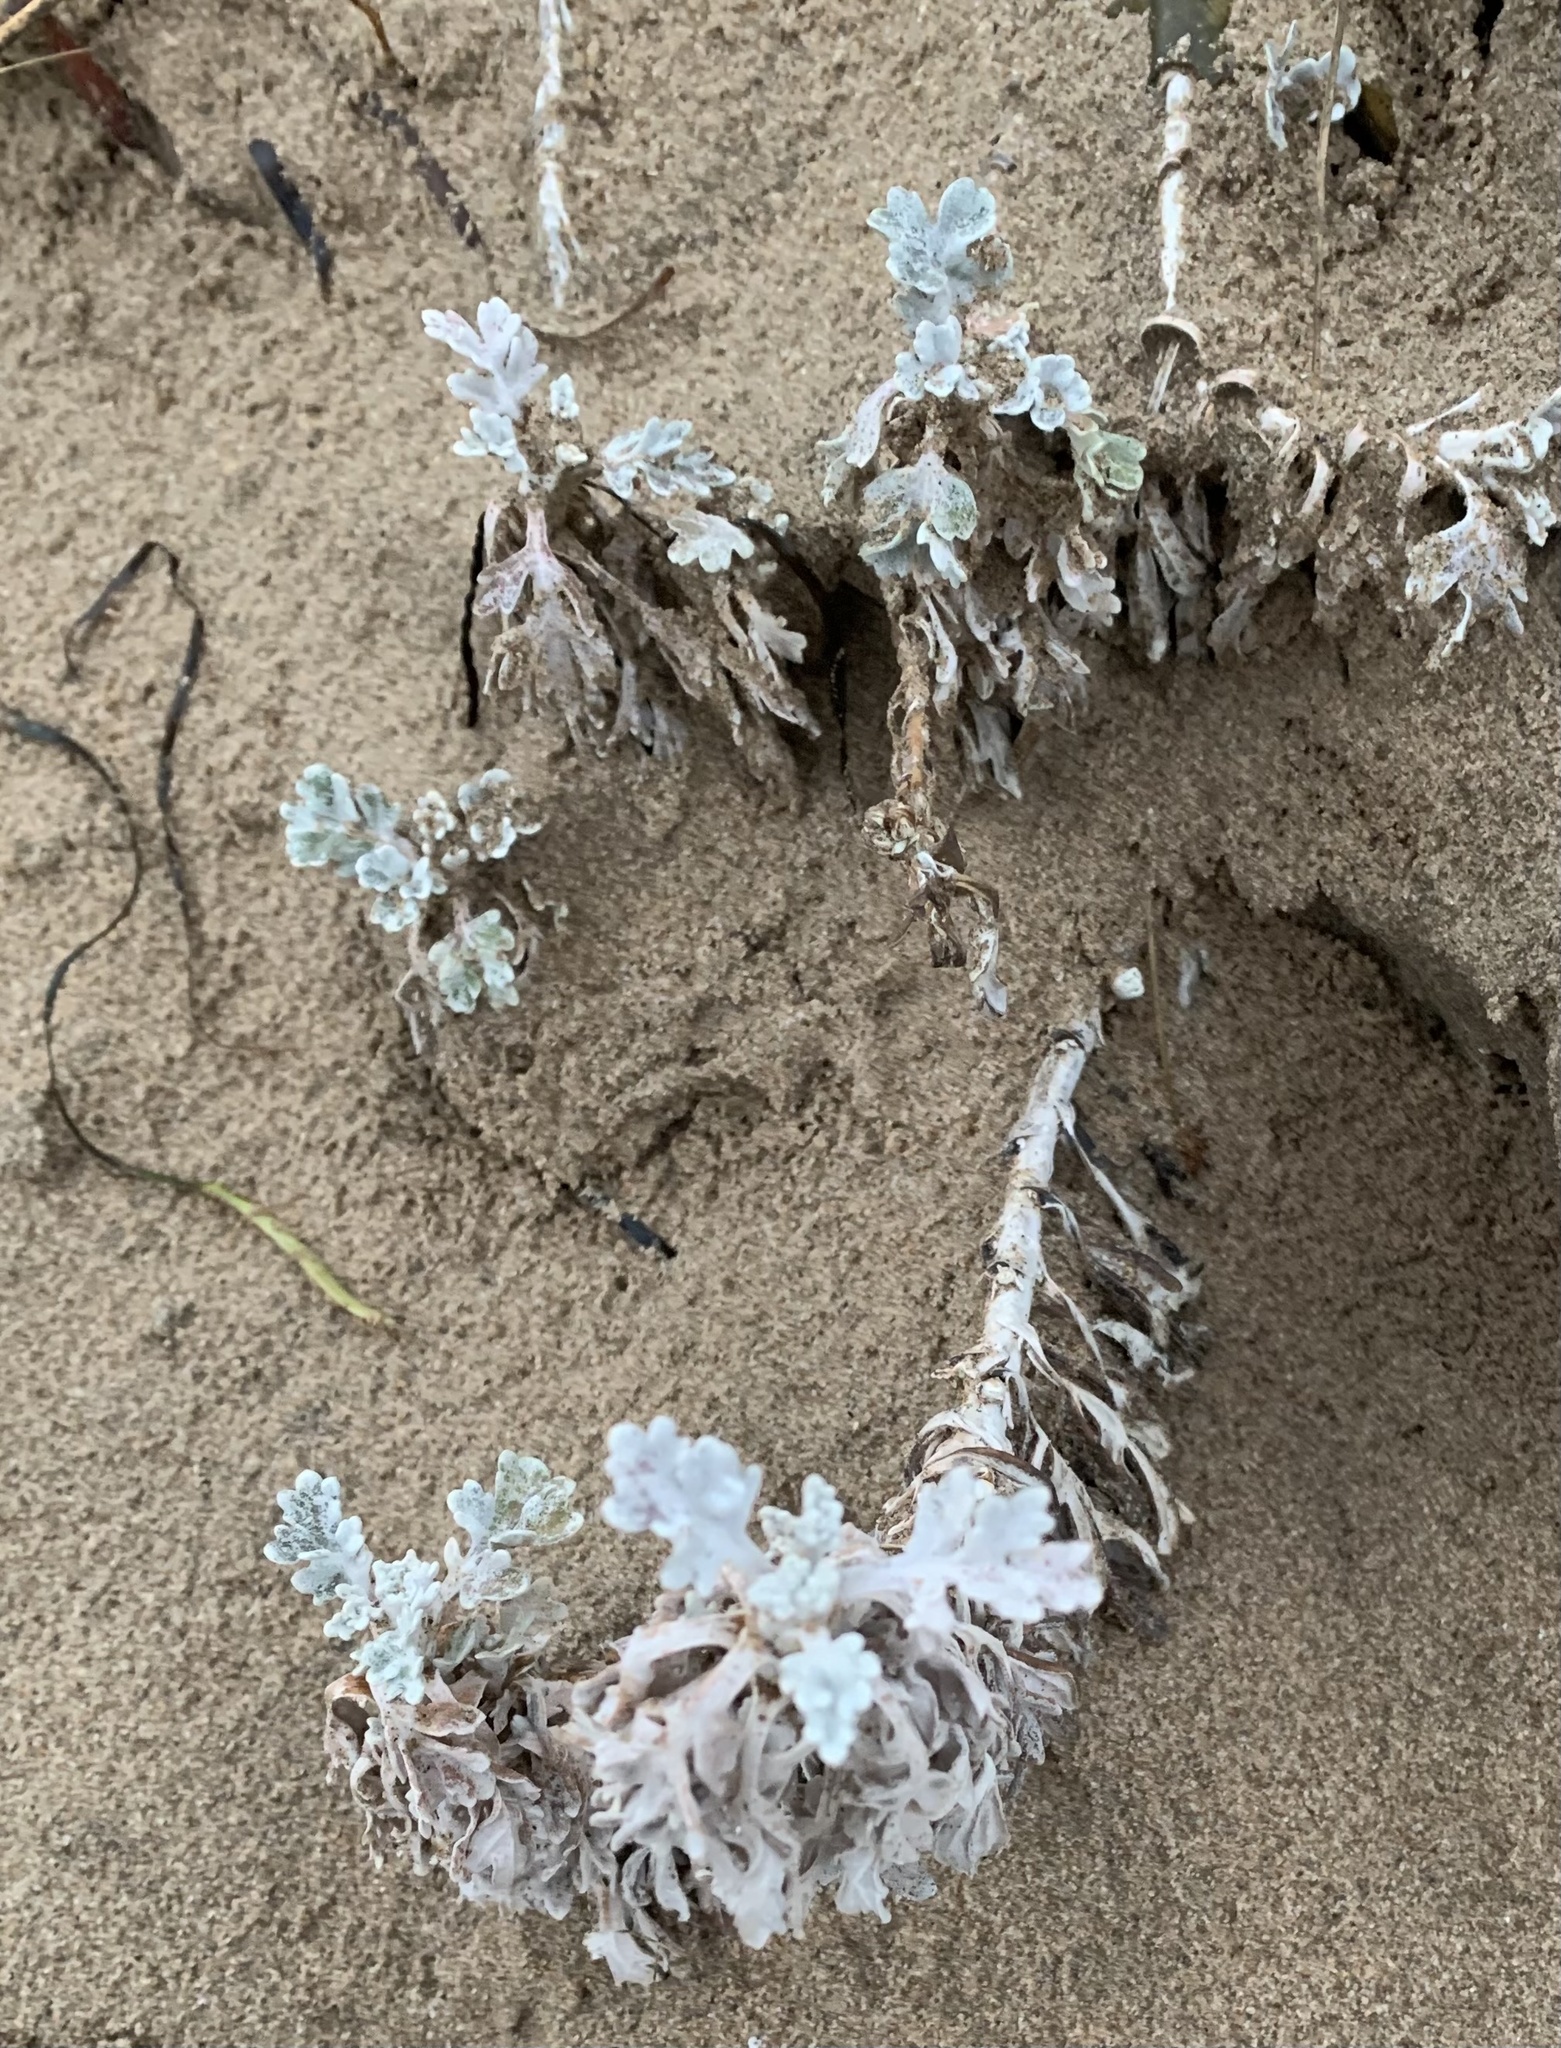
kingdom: Plantae
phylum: Tracheophyta
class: Magnoliopsida
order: Asterales
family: Asteraceae
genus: Artemisia
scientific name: Artemisia stelleriana
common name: Beach wormwood
